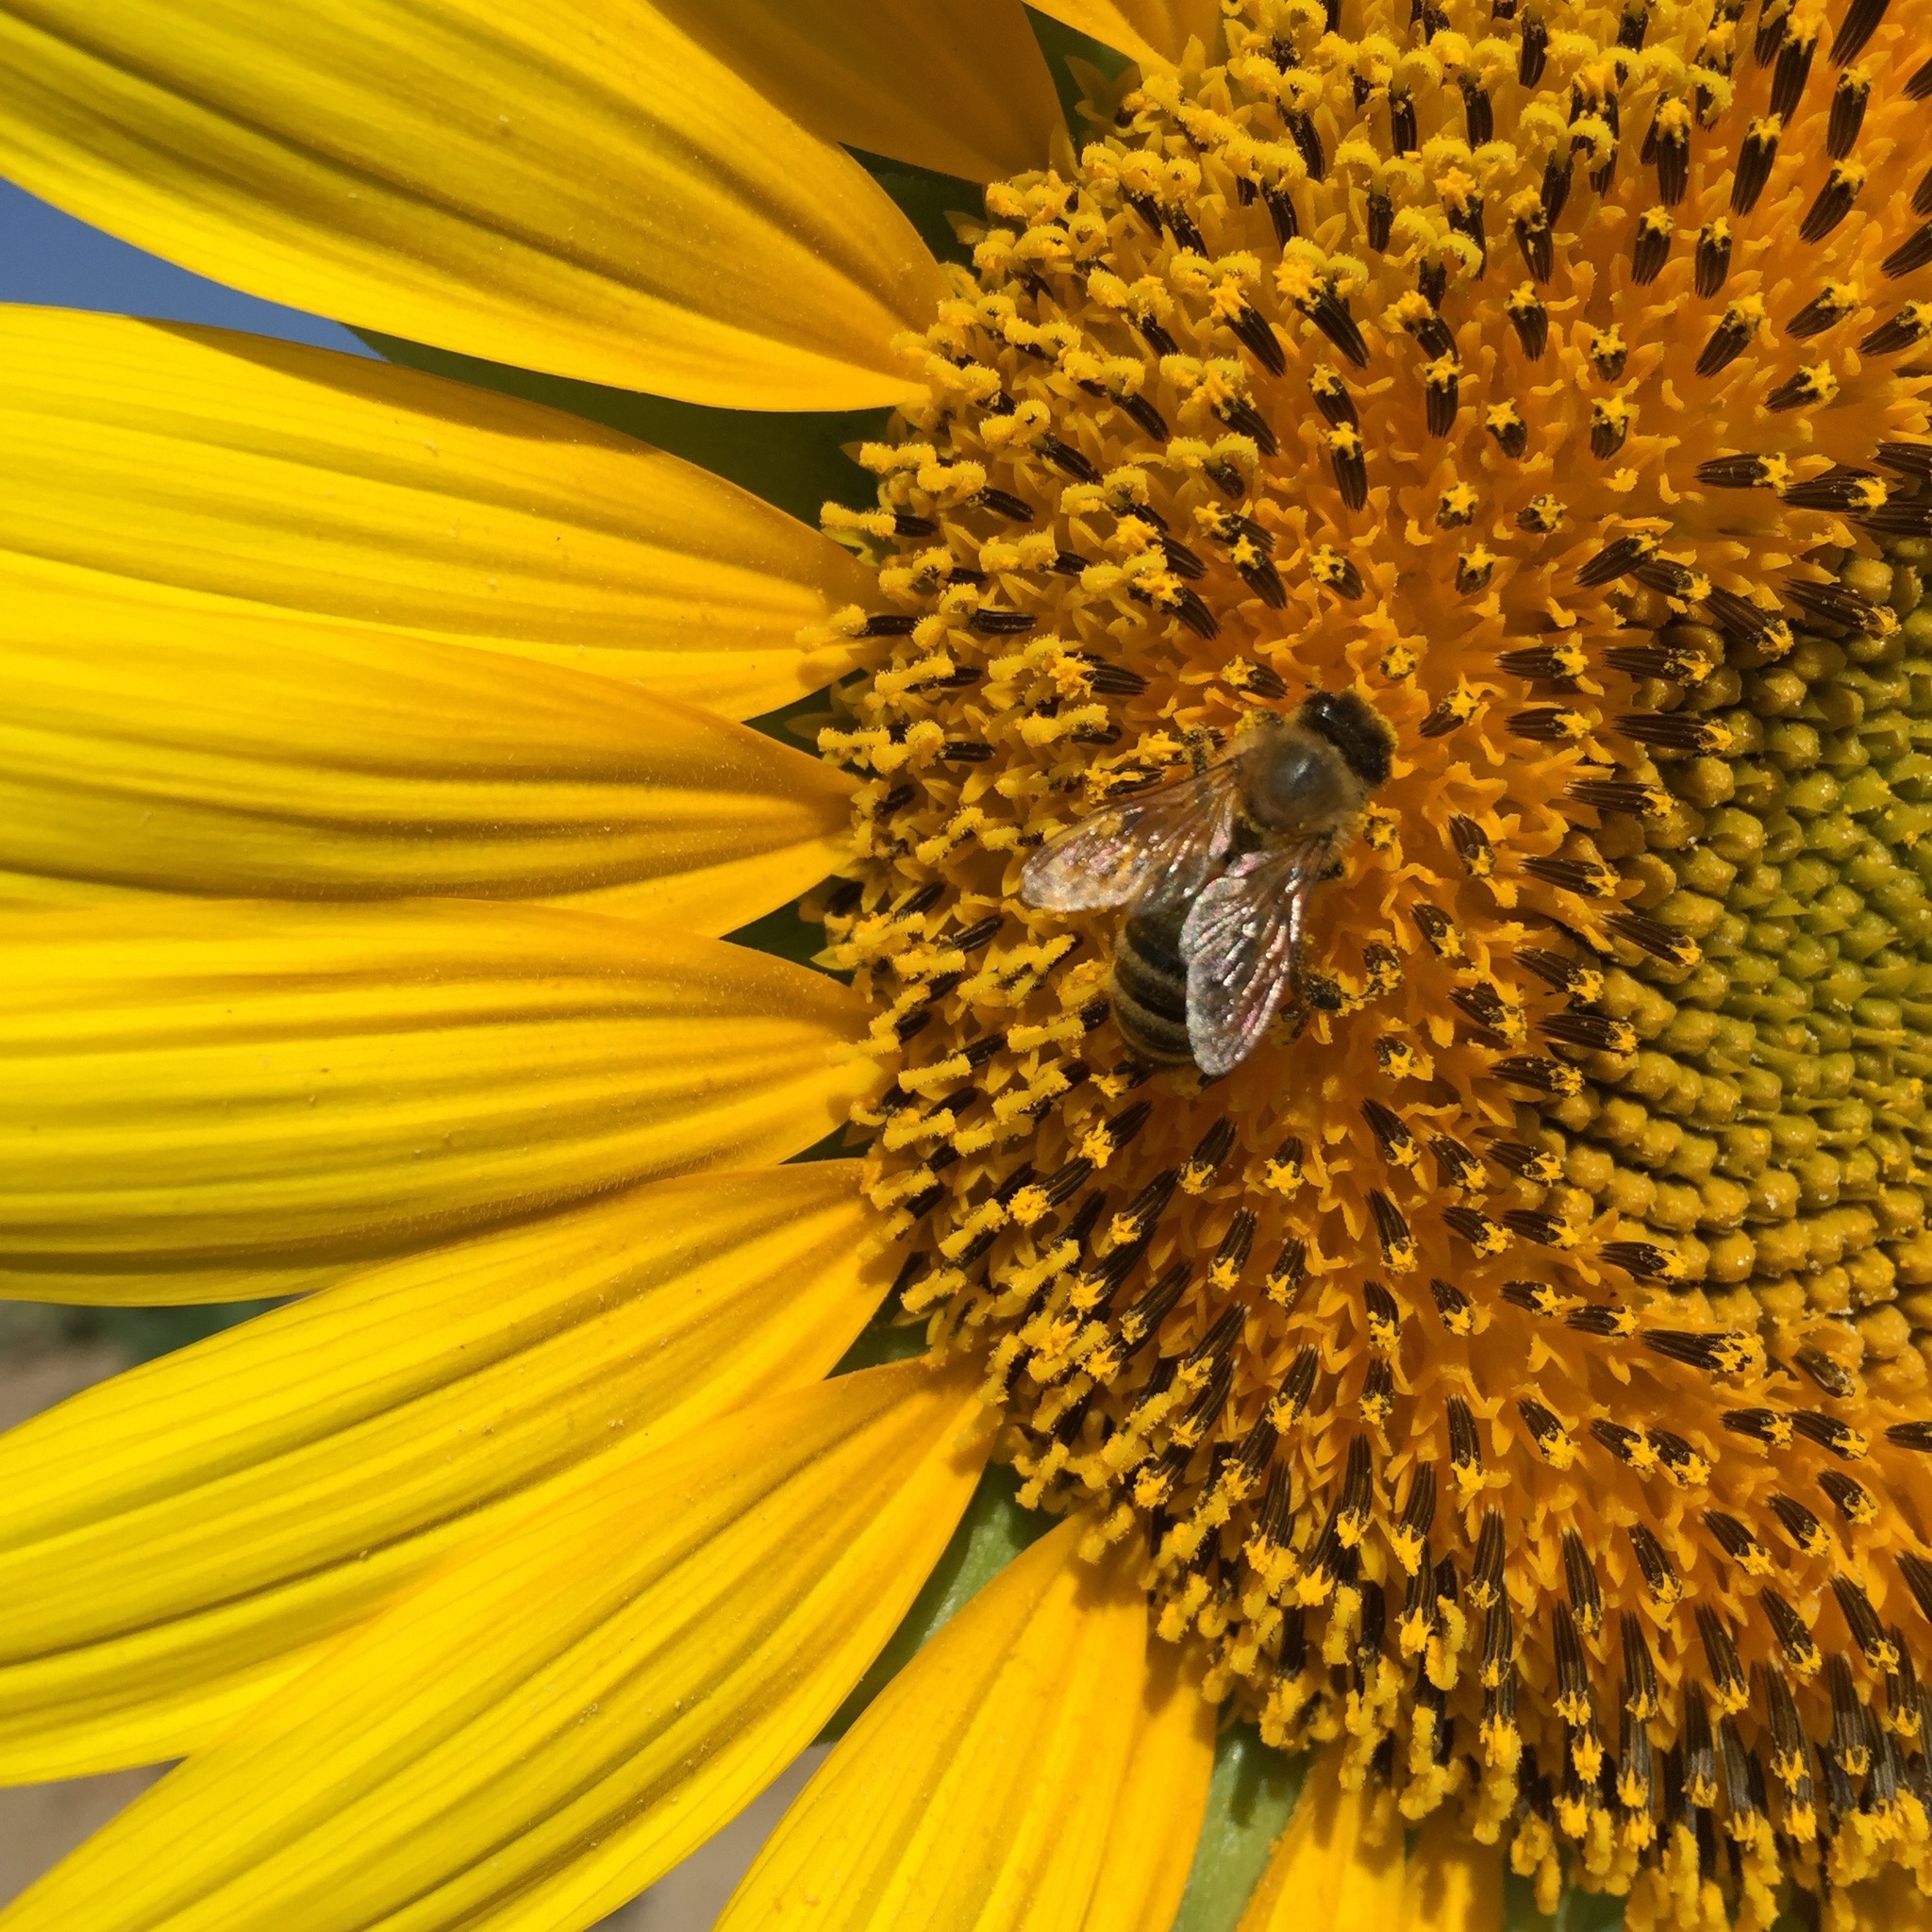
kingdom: Animalia
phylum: Arthropoda
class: Insecta
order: Hymenoptera
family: Apidae
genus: Apis
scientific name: Apis mellifera
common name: Honey bee
